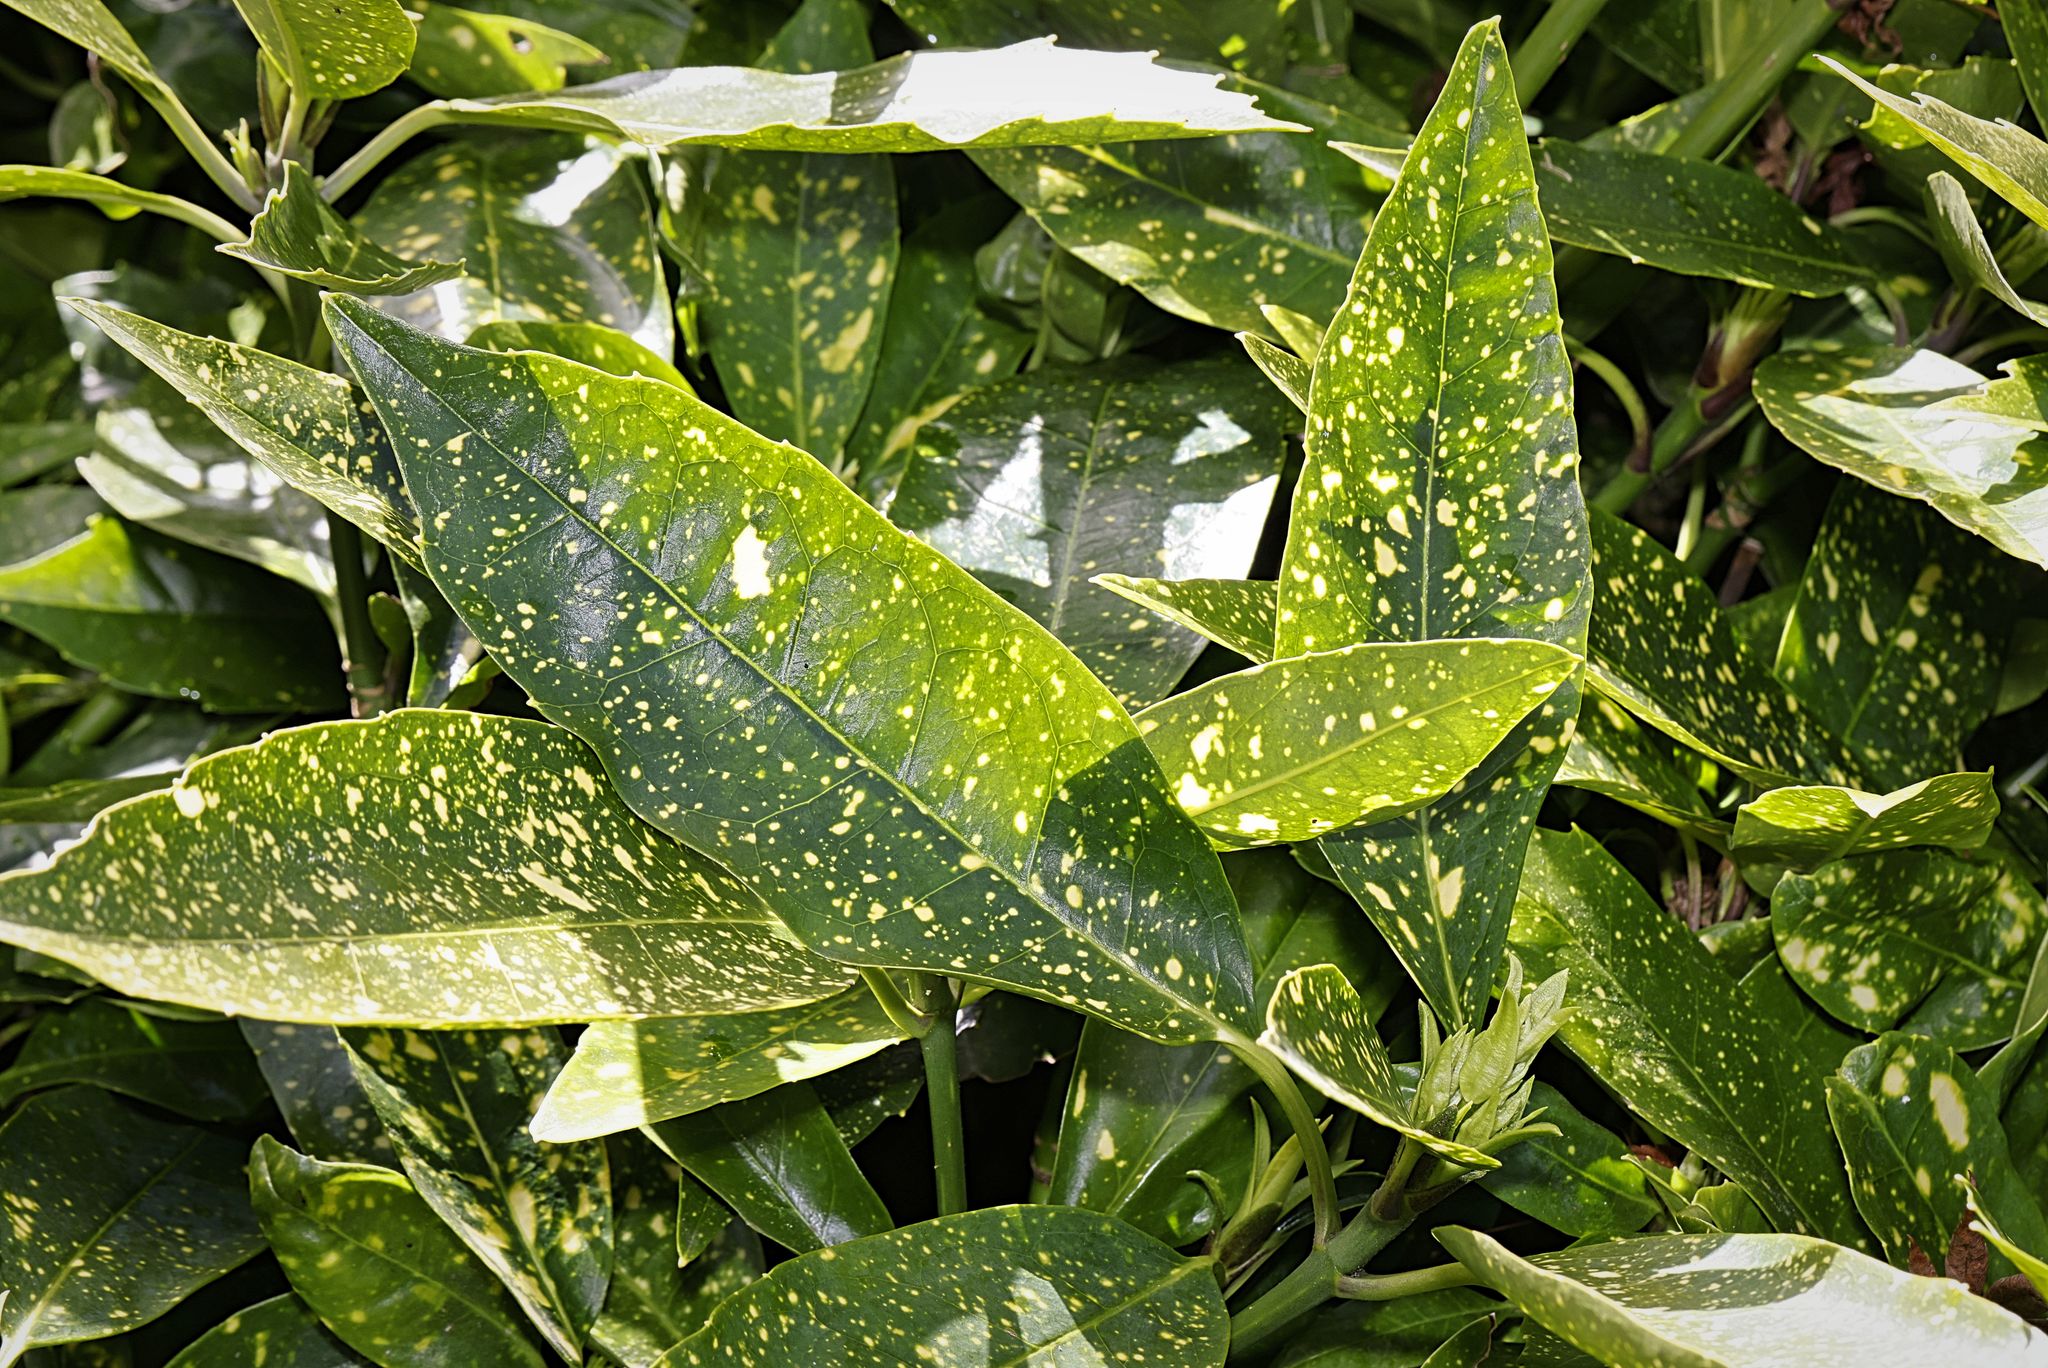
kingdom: Plantae
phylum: Tracheophyta
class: Magnoliopsida
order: Garryales
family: Garryaceae
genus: Aucuba
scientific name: Aucuba japonica
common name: Spotted-laurel
